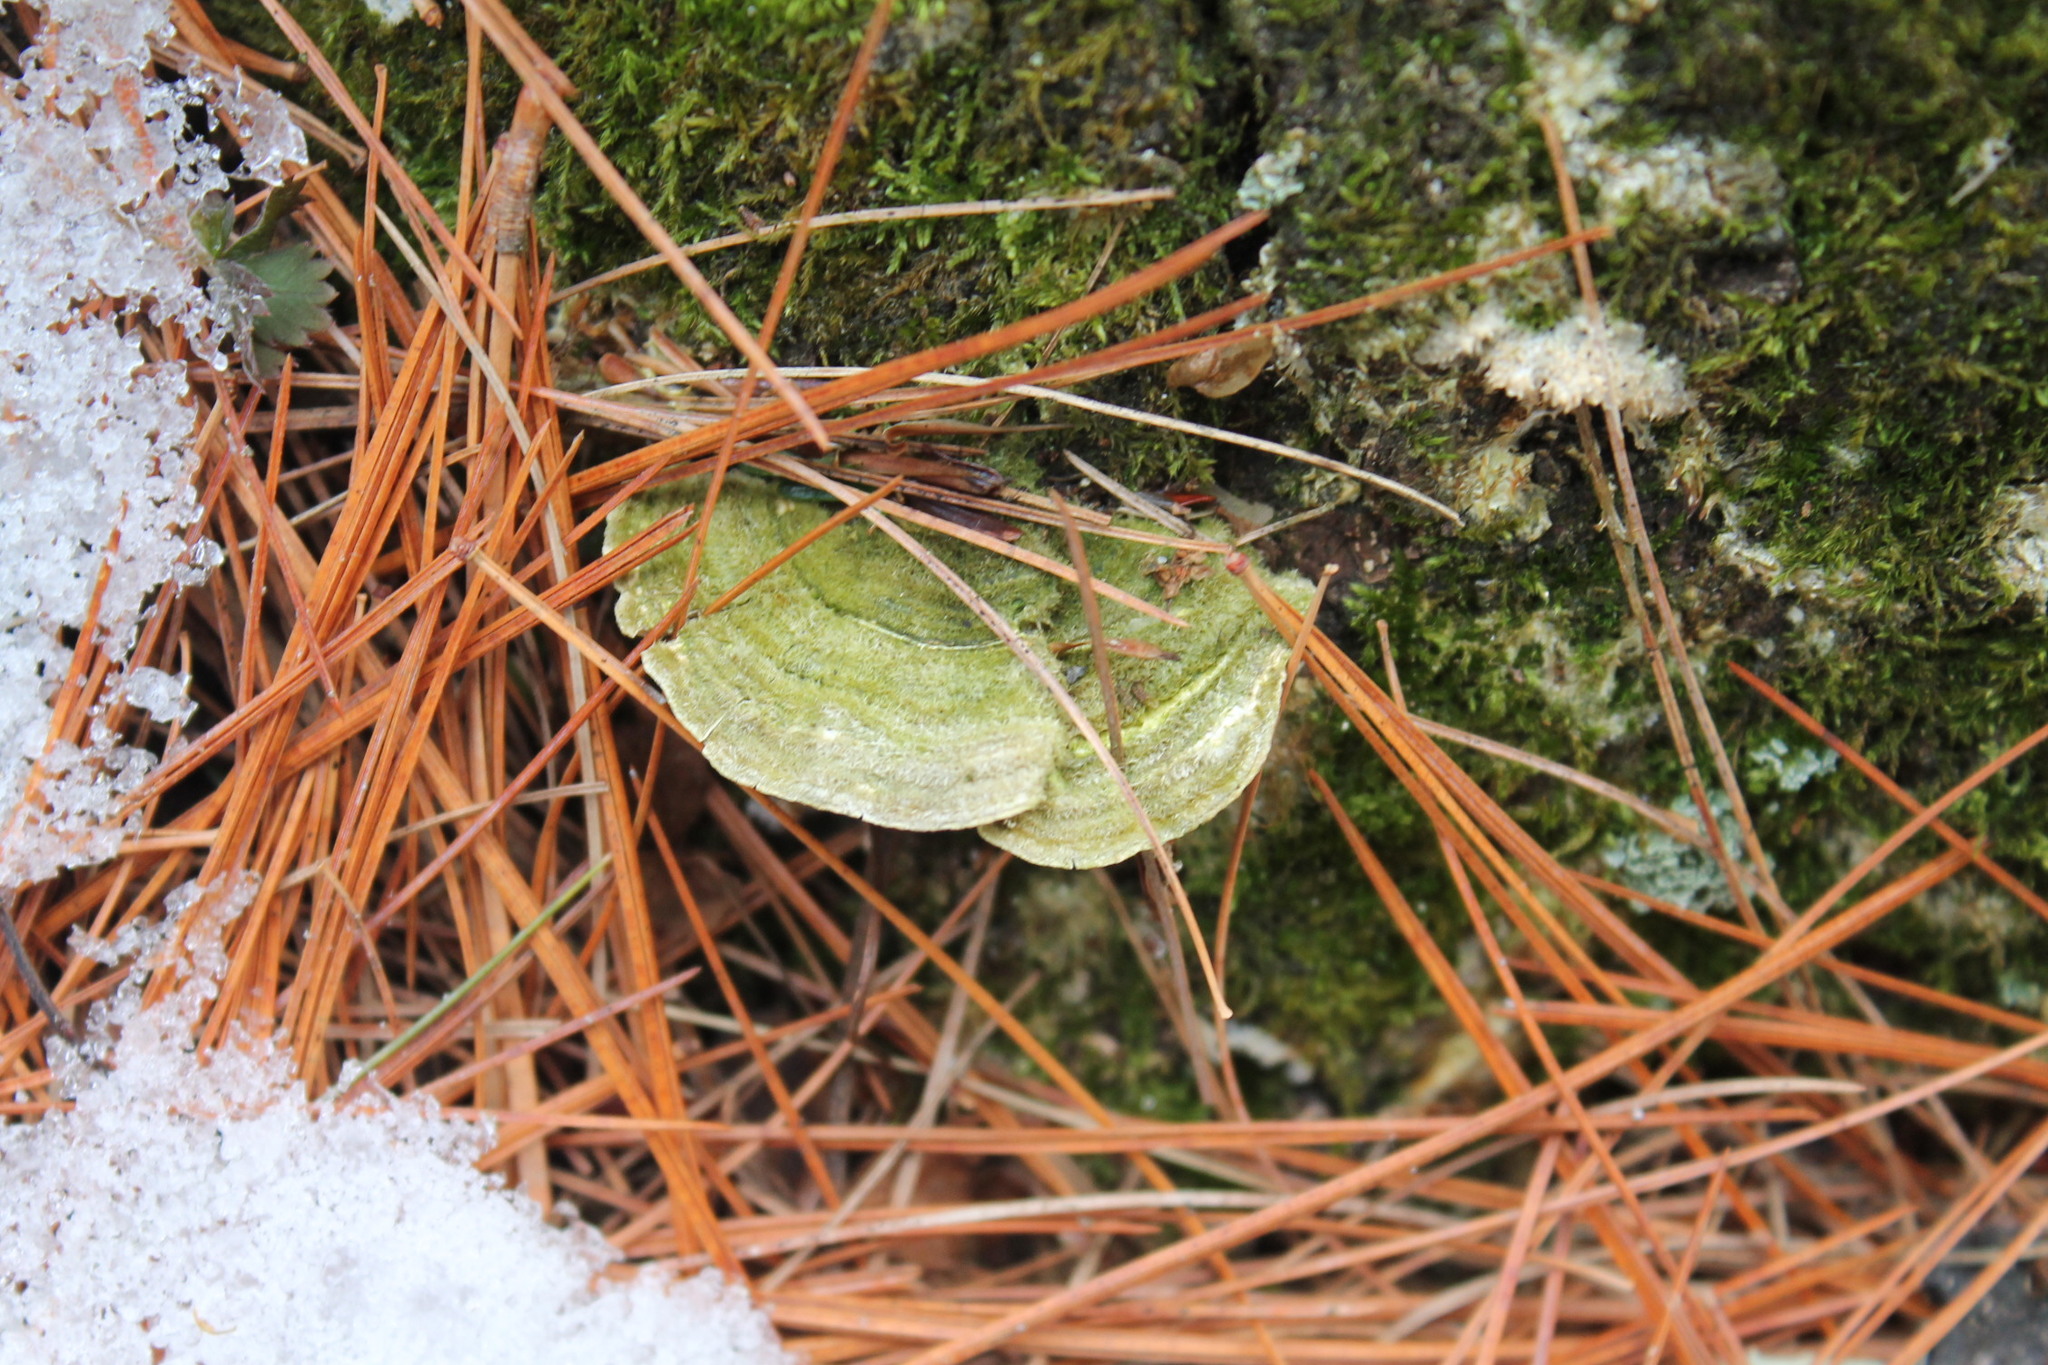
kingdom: Fungi
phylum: Basidiomycota
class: Agaricomycetes
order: Polyporales
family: Polyporaceae
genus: Lenzites
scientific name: Lenzites betulinus
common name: Birch mazegill
